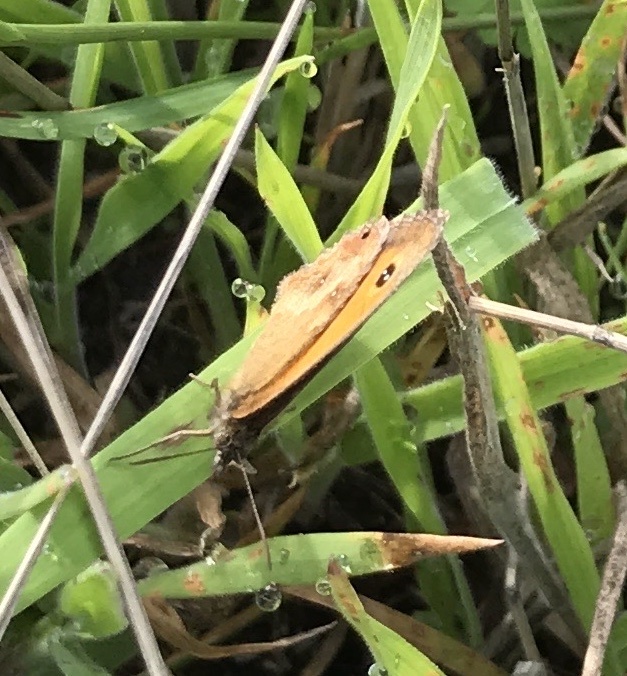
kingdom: Animalia
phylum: Arthropoda
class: Insecta
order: Lepidoptera
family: Nymphalidae
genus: Pyronia
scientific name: Pyronia tithonus
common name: Gatekeeper
